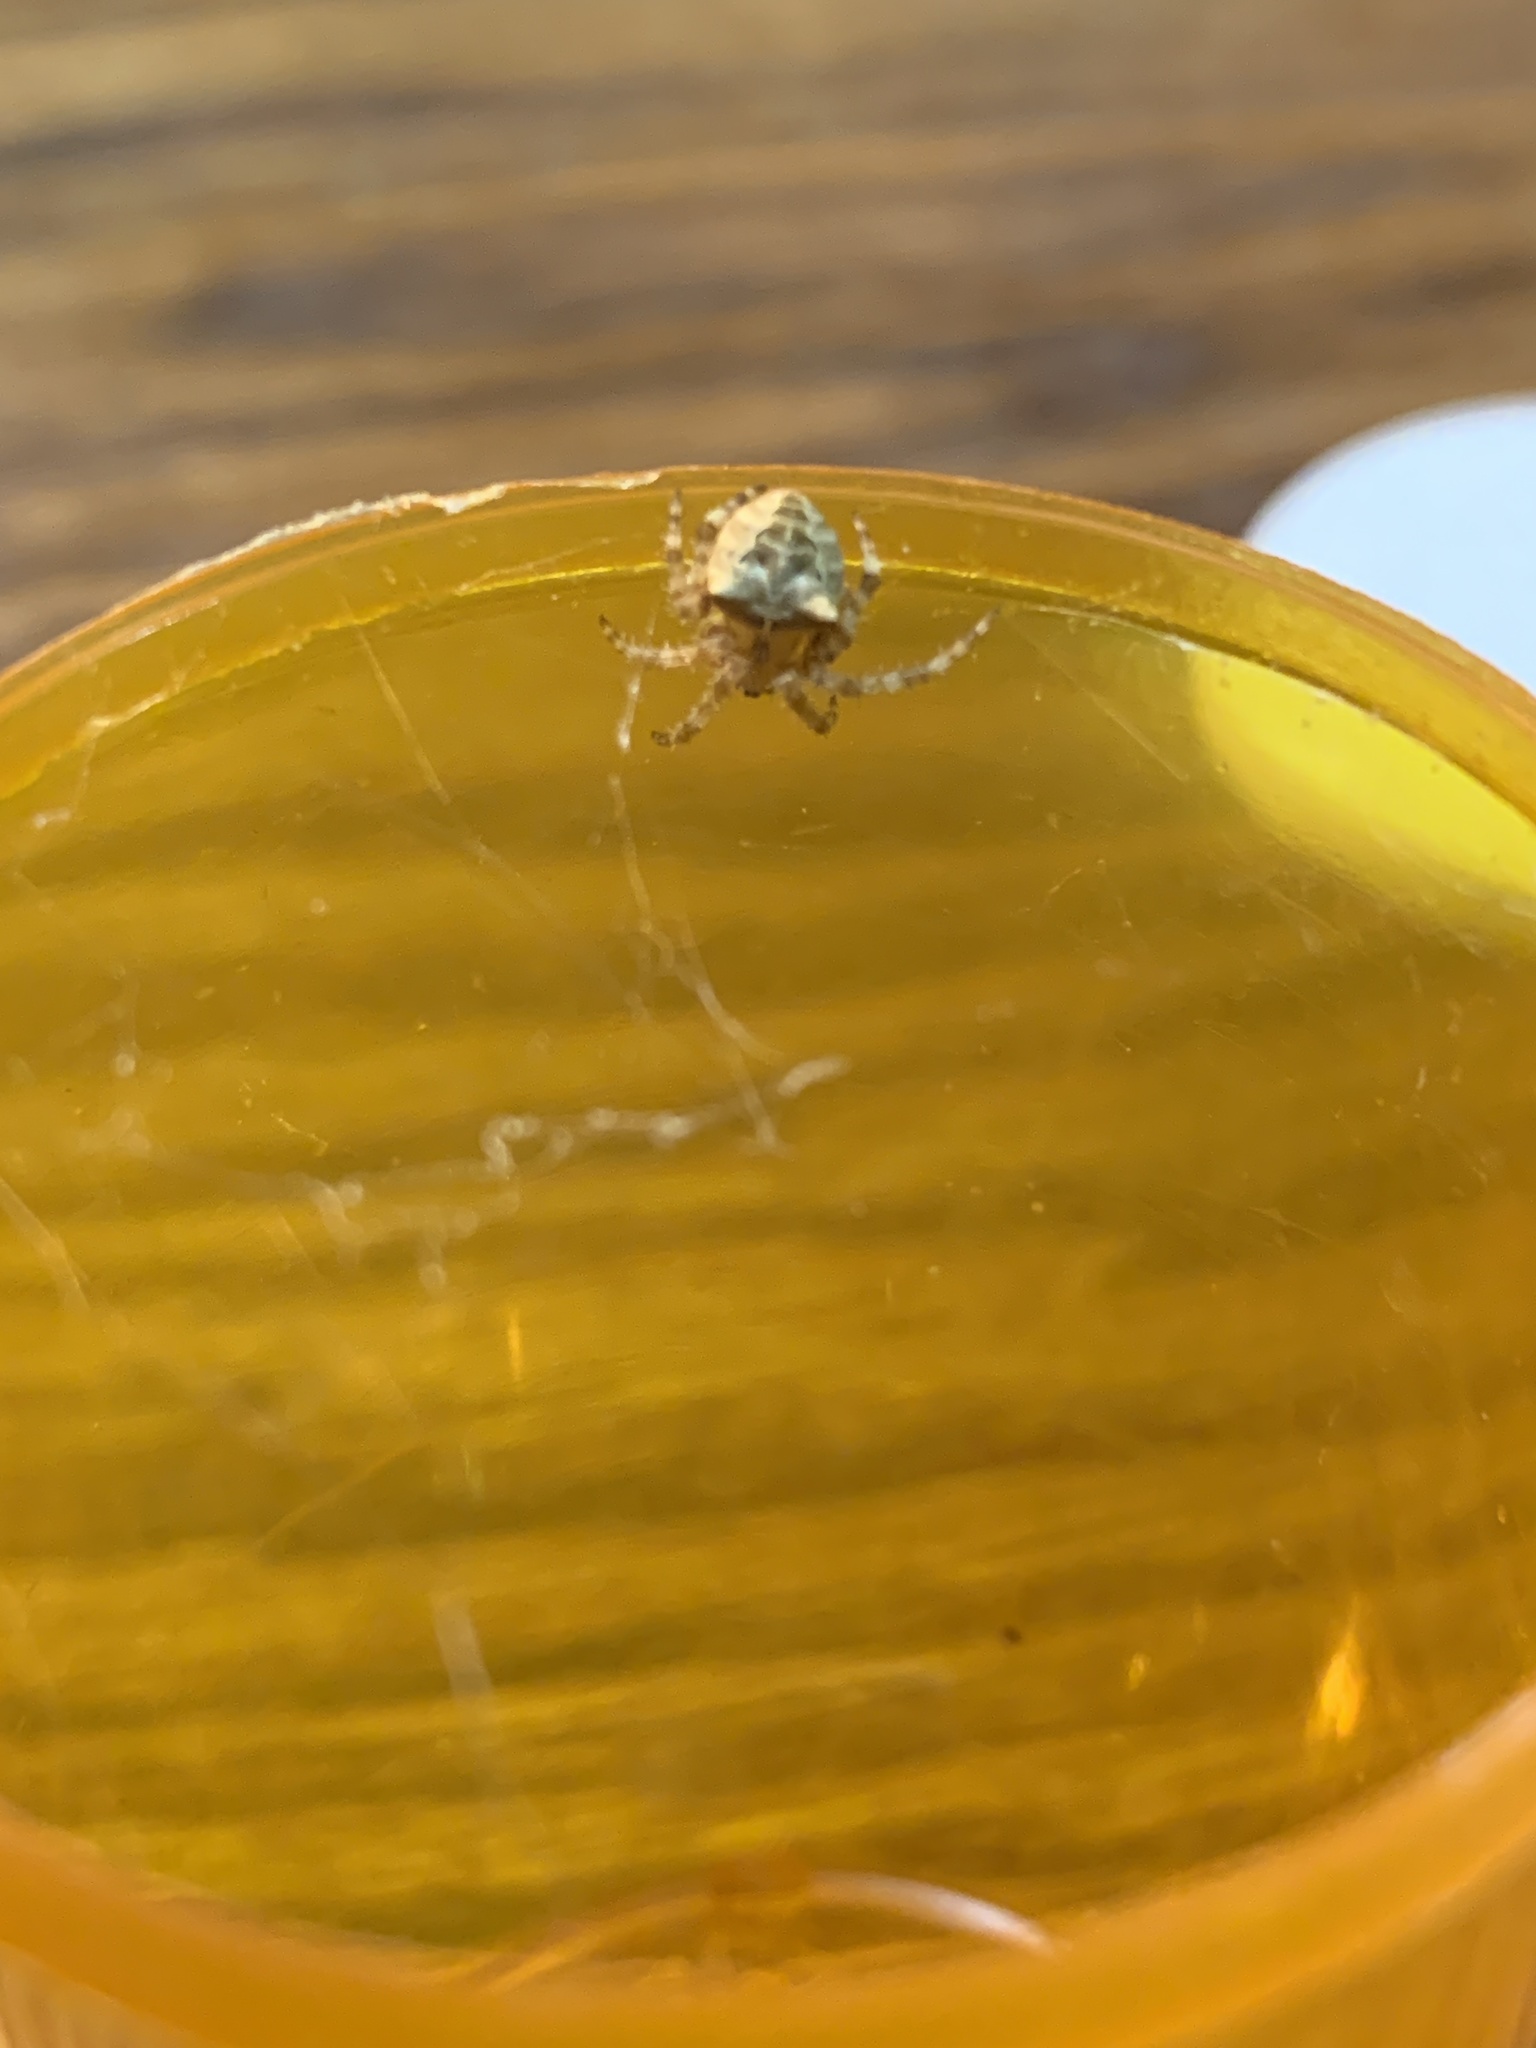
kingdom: Animalia
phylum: Arthropoda
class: Arachnida
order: Araneae
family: Araneidae
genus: Araneus
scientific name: Araneus gemmoides
